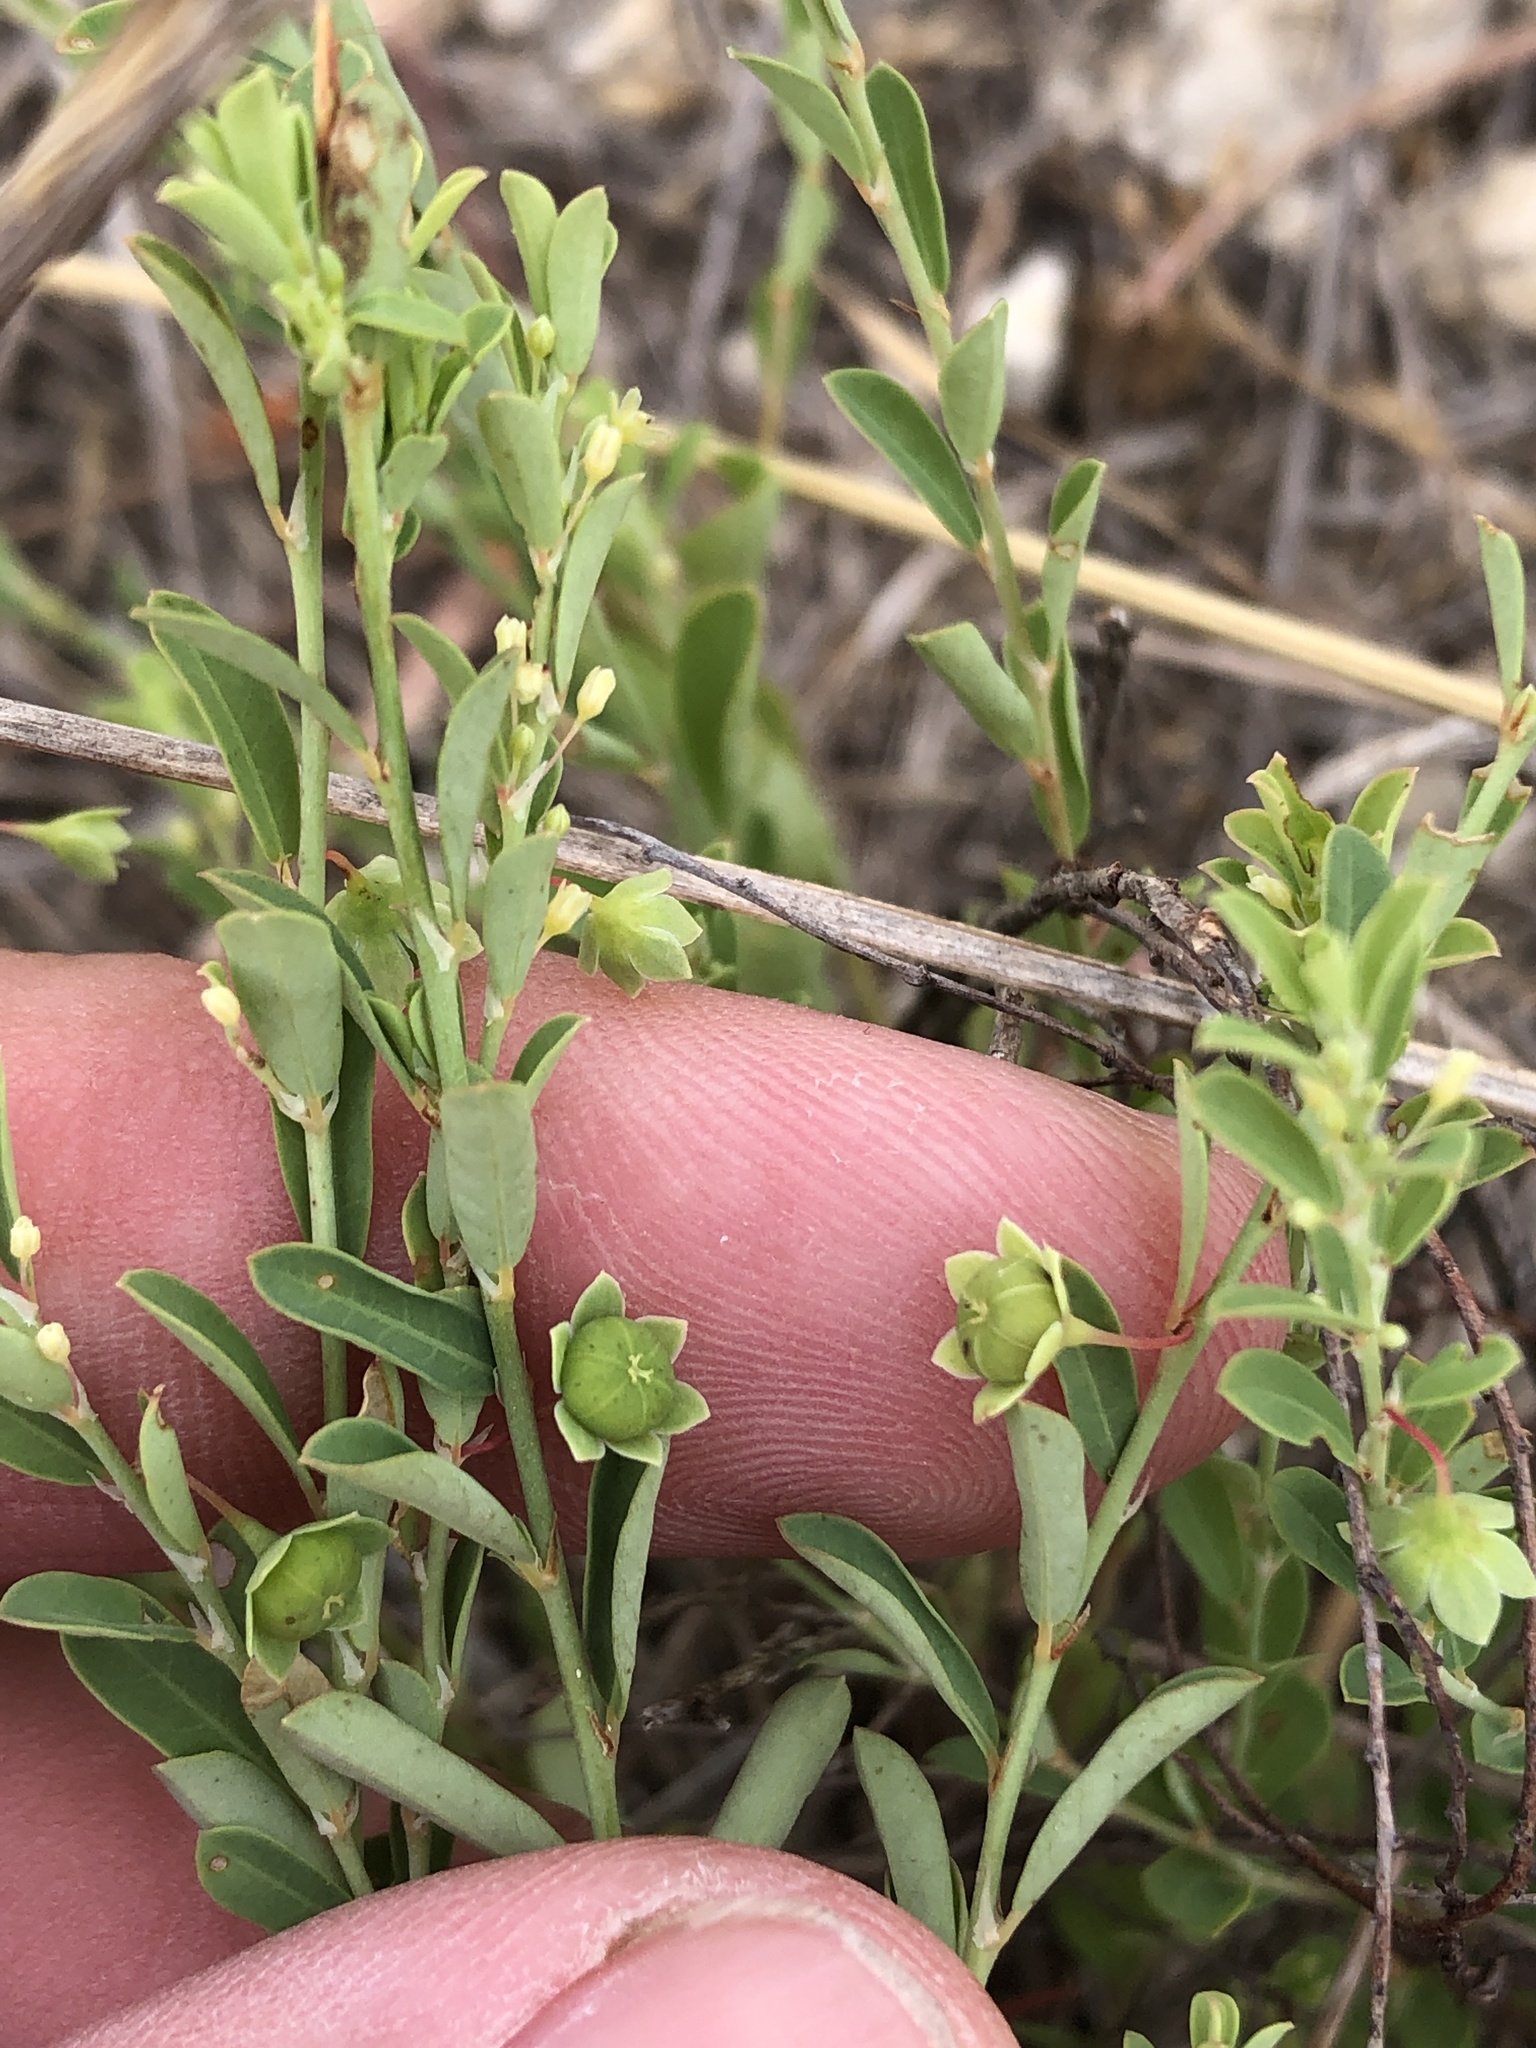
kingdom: Plantae
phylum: Tracheophyta
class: Magnoliopsida
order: Malpighiales
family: Phyllanthaceae
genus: Phyllanthus
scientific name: Phyllanthus polygonoides
